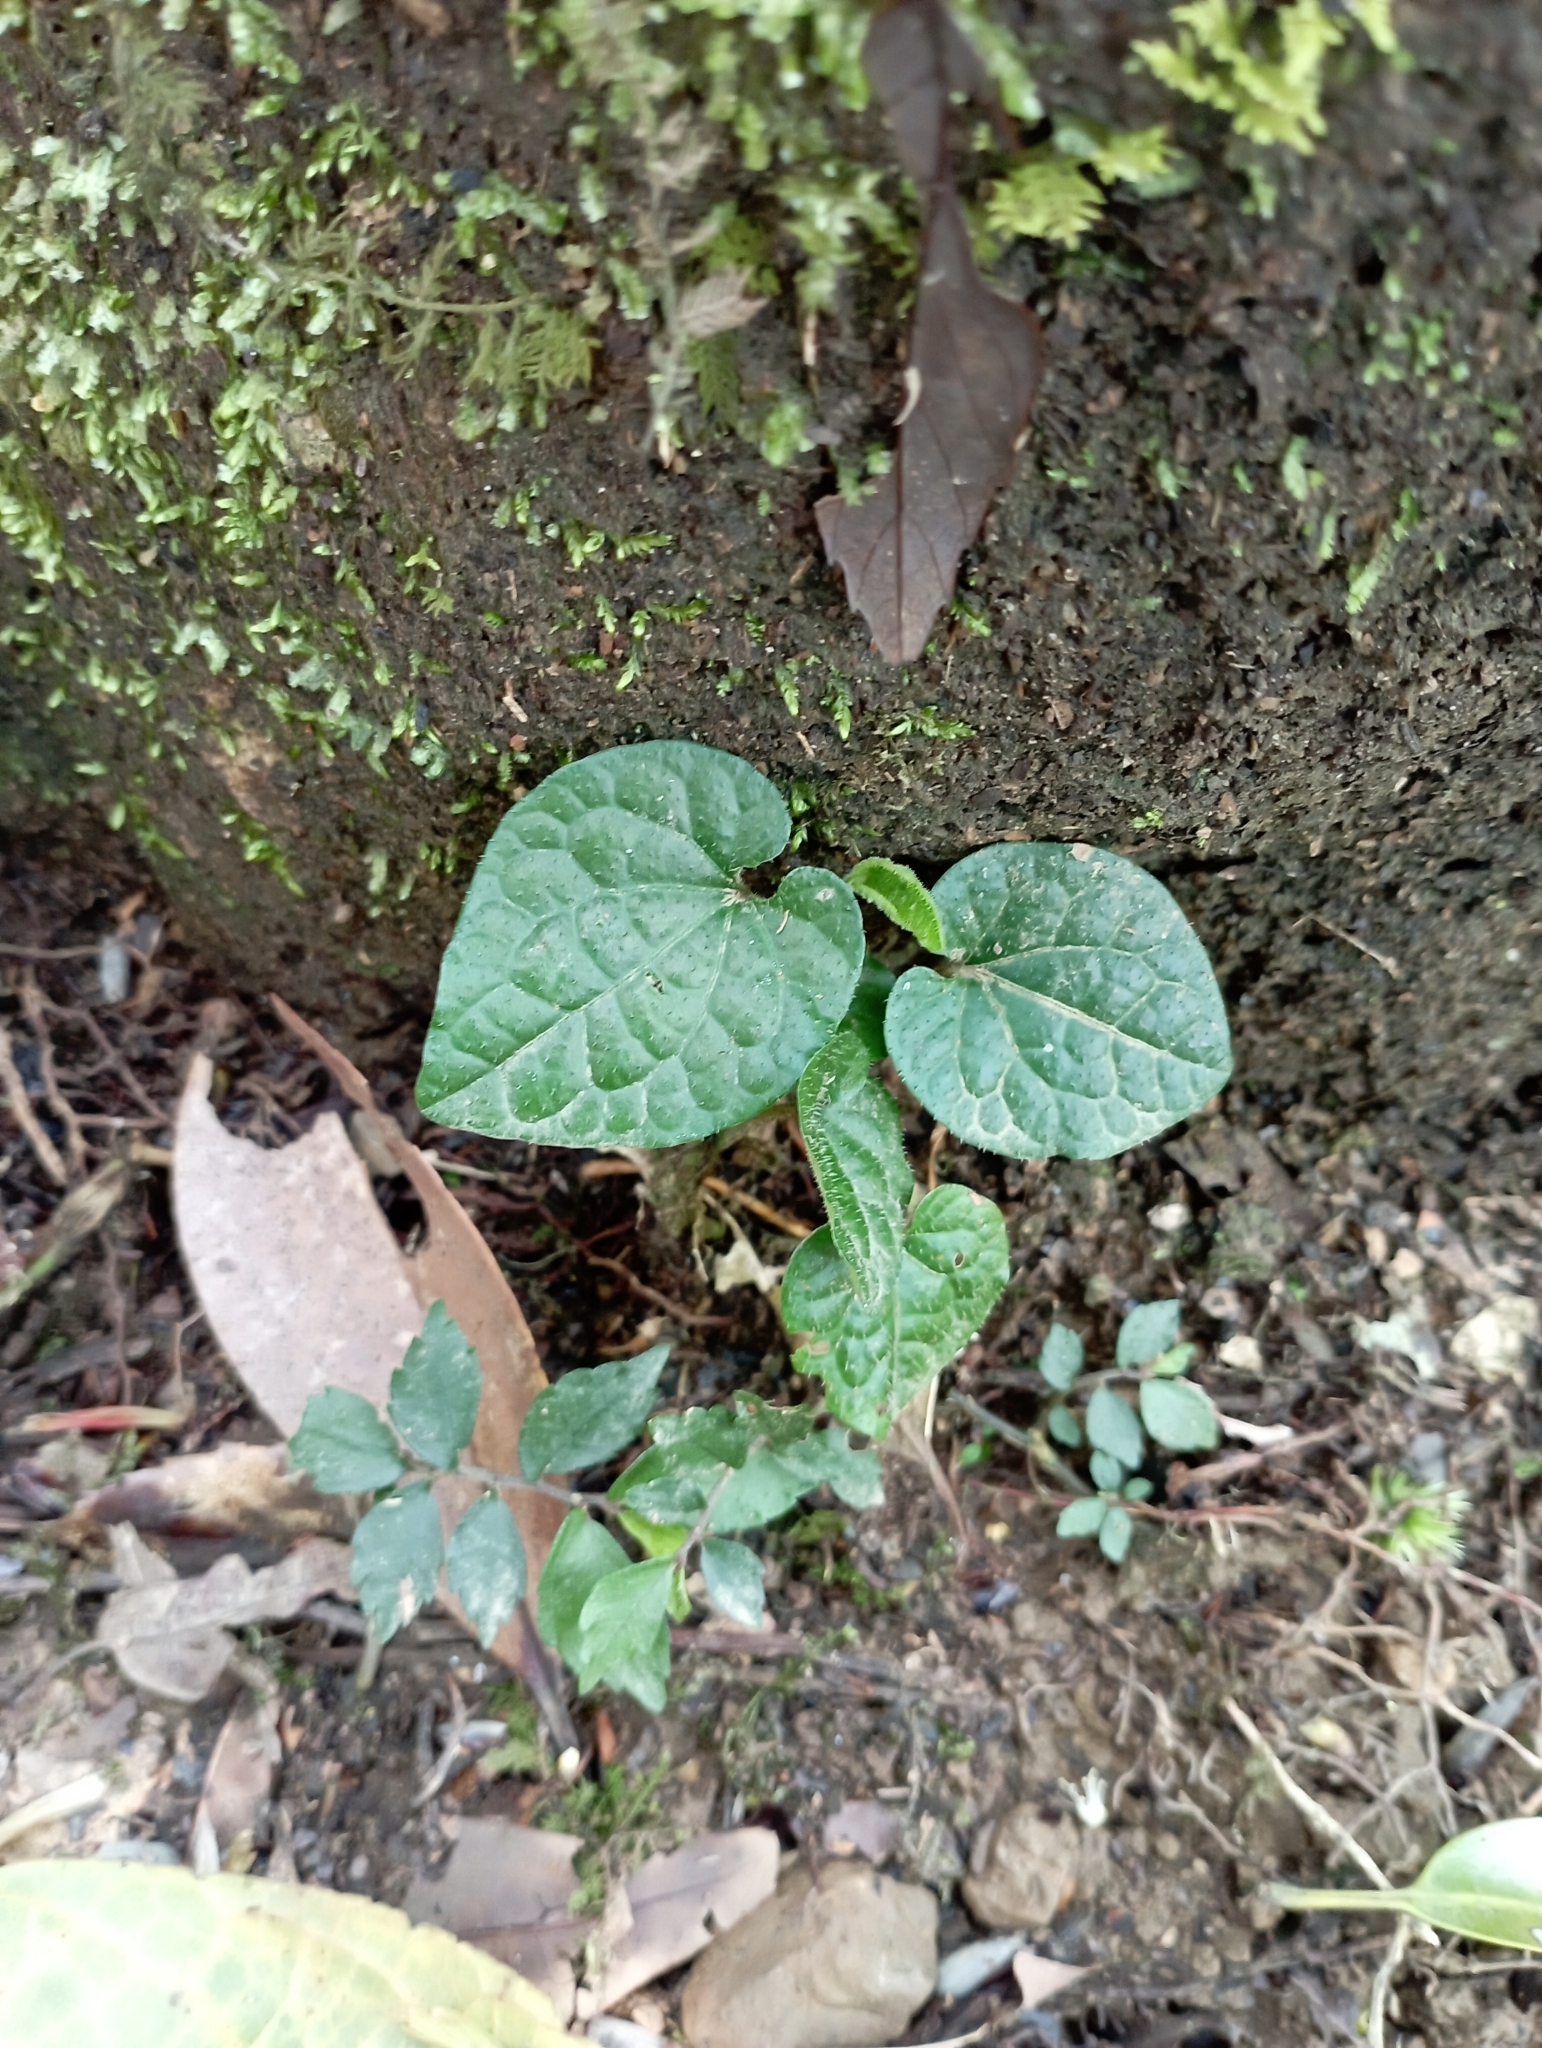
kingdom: Plantae
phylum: Tracheophyta
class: Magnoliopsida
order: Piperales
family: Piperaceae
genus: Piper
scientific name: Piper sintenense
